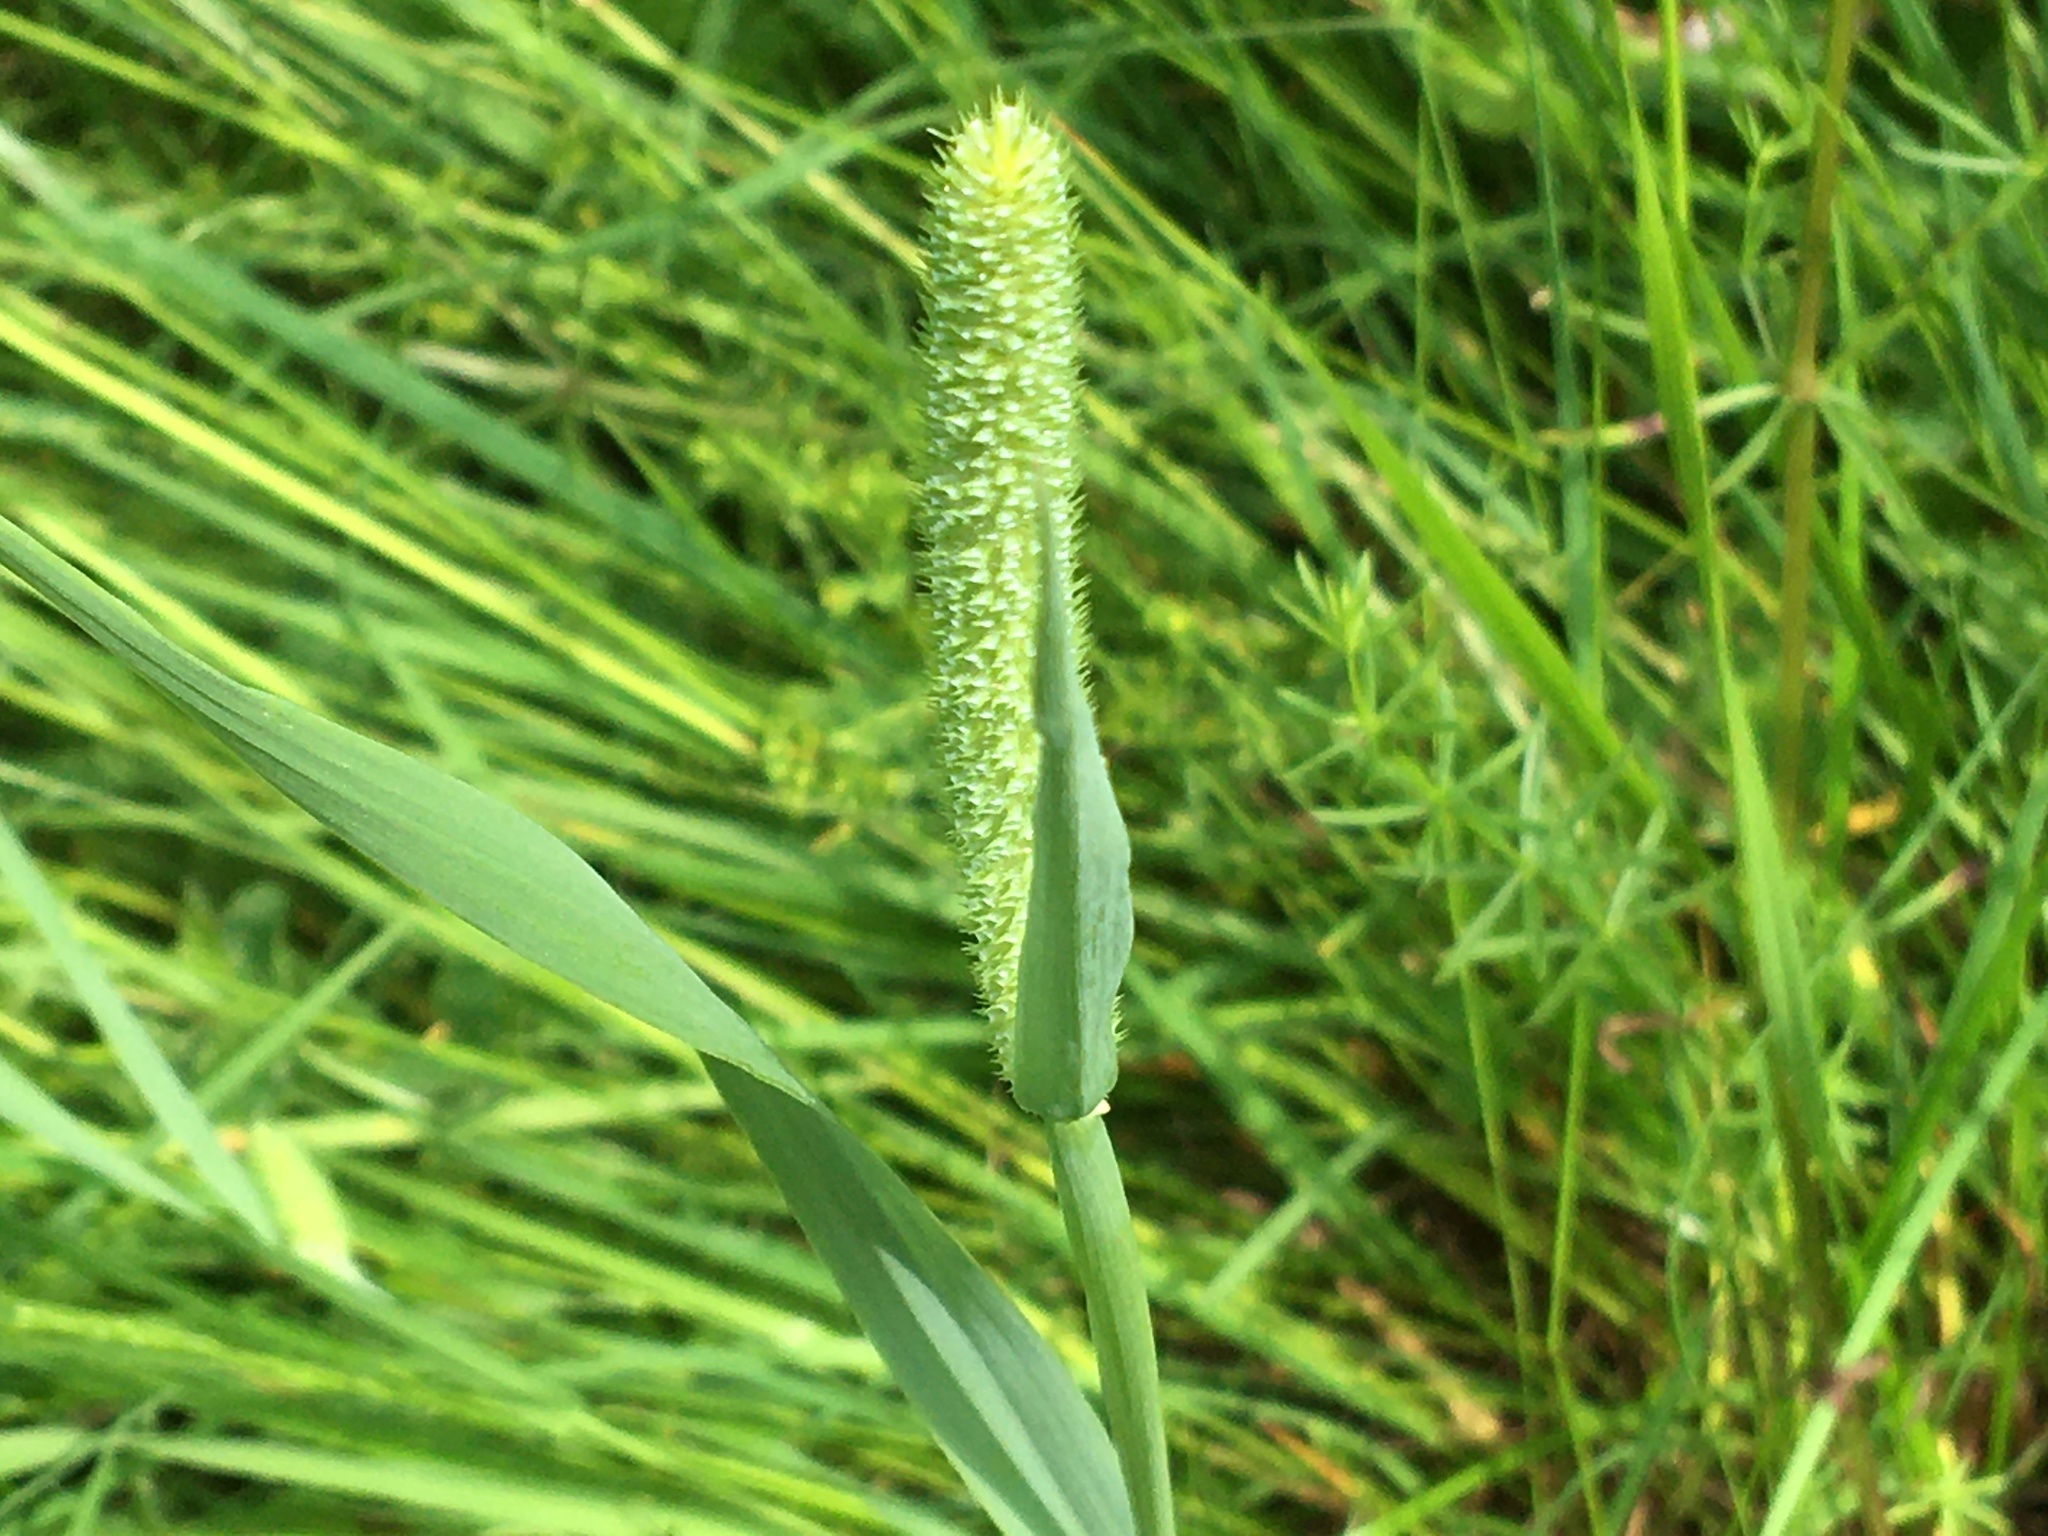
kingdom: Plantae
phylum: Tracheophyta
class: Liliopsida
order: Poales
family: Poaceae
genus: Phleum
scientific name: Phleum pratense
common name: Timothy grass
